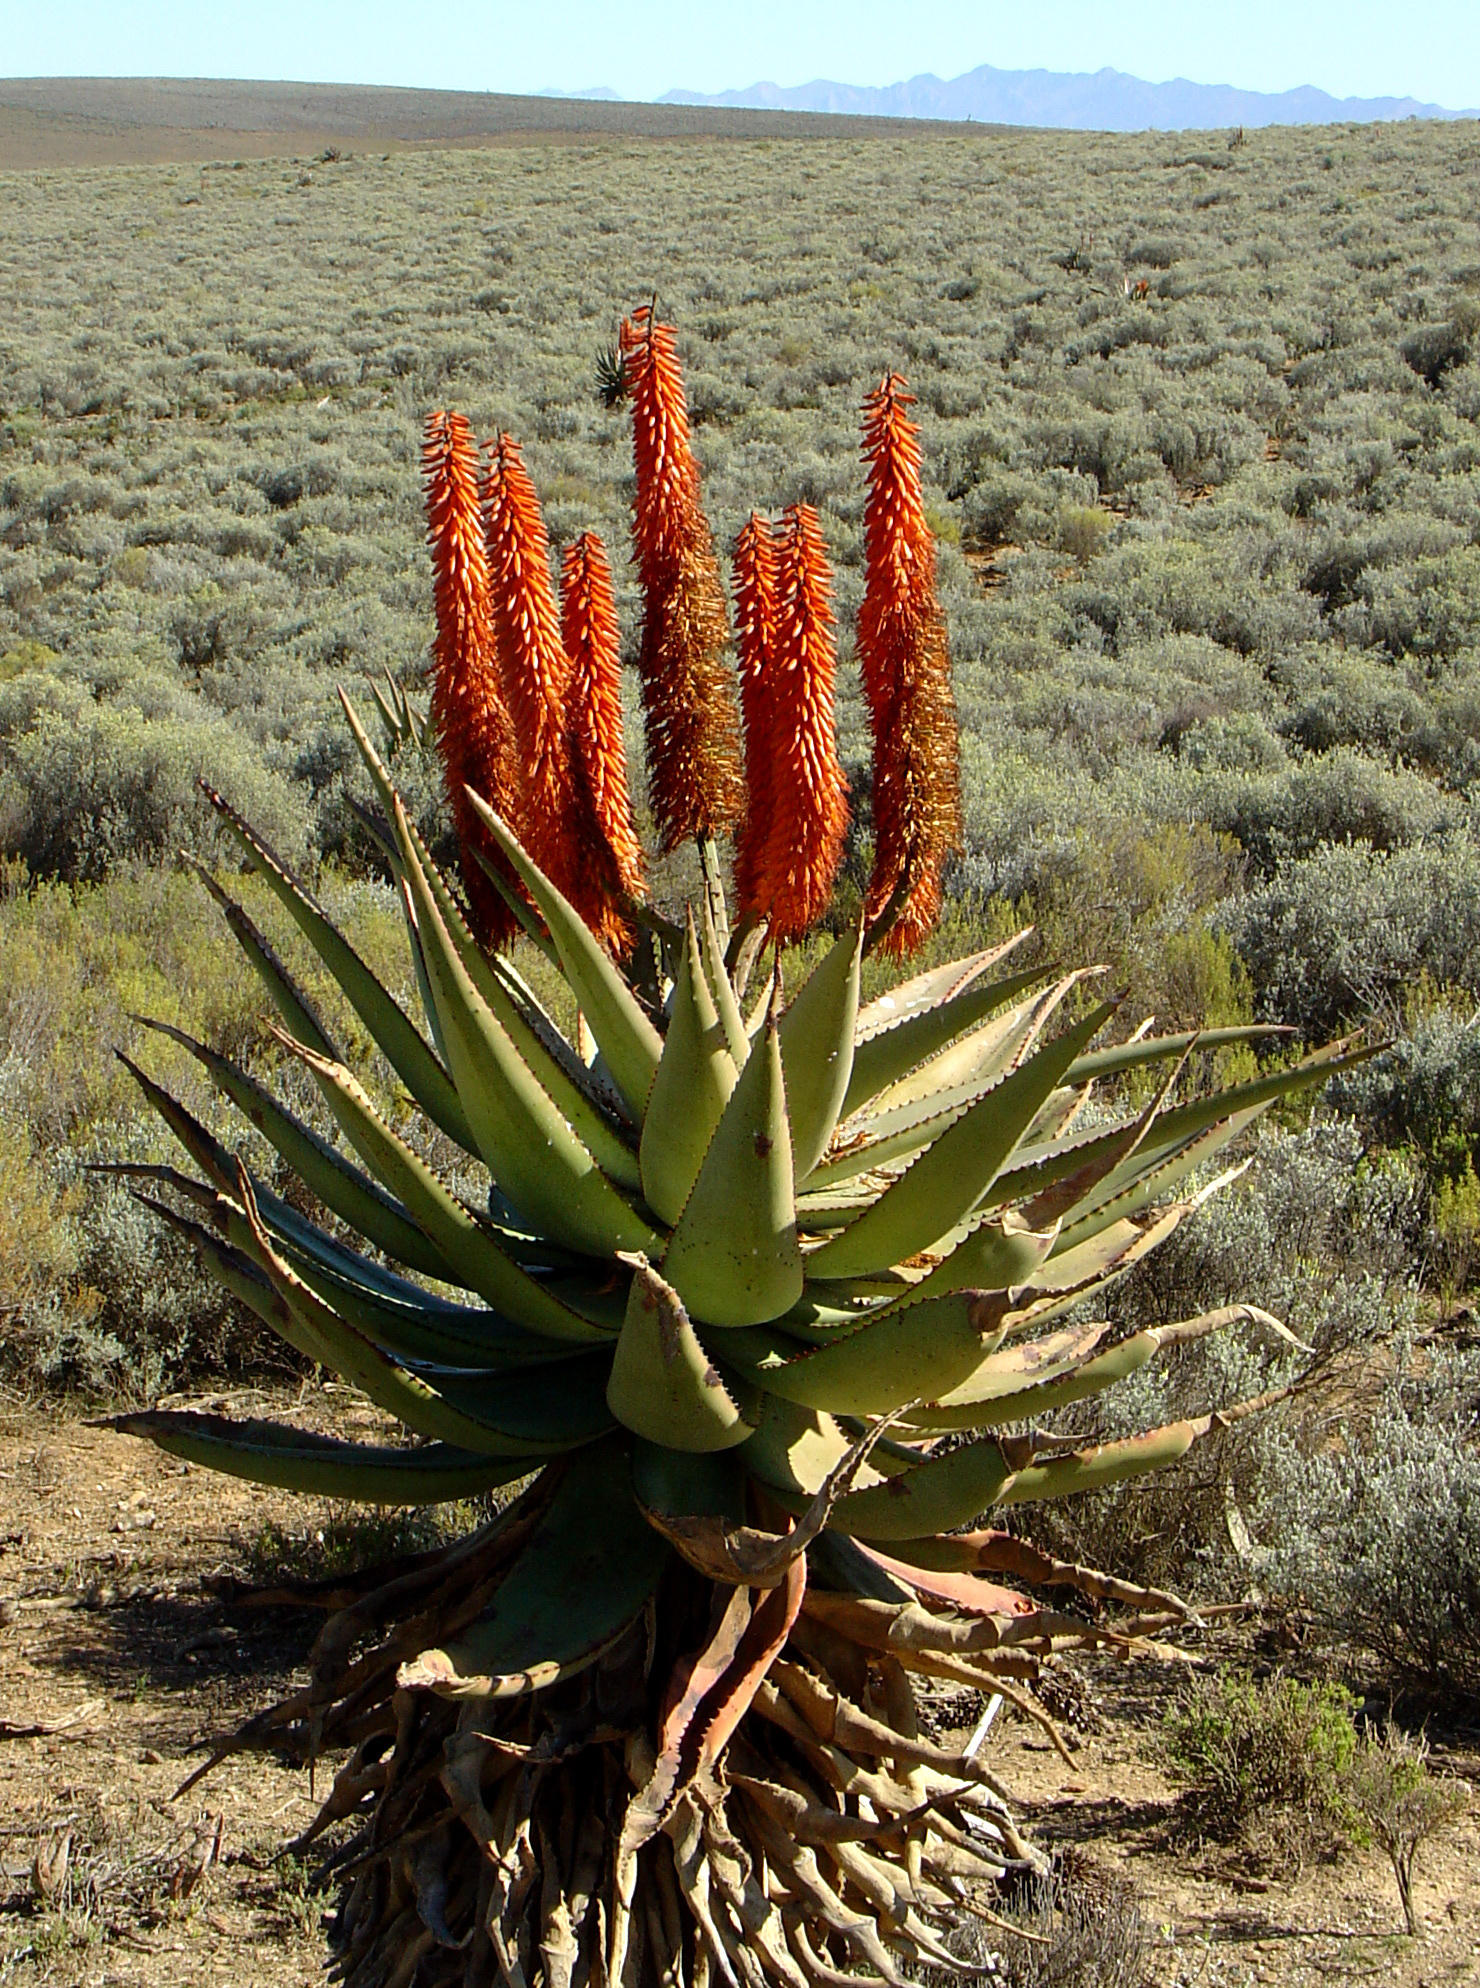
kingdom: Plantae
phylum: Tracheophyta
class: Liliopsida
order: Asparagales
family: Asphodelaceae
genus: Aloe
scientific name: Aloe ferox
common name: Bitter aloe
